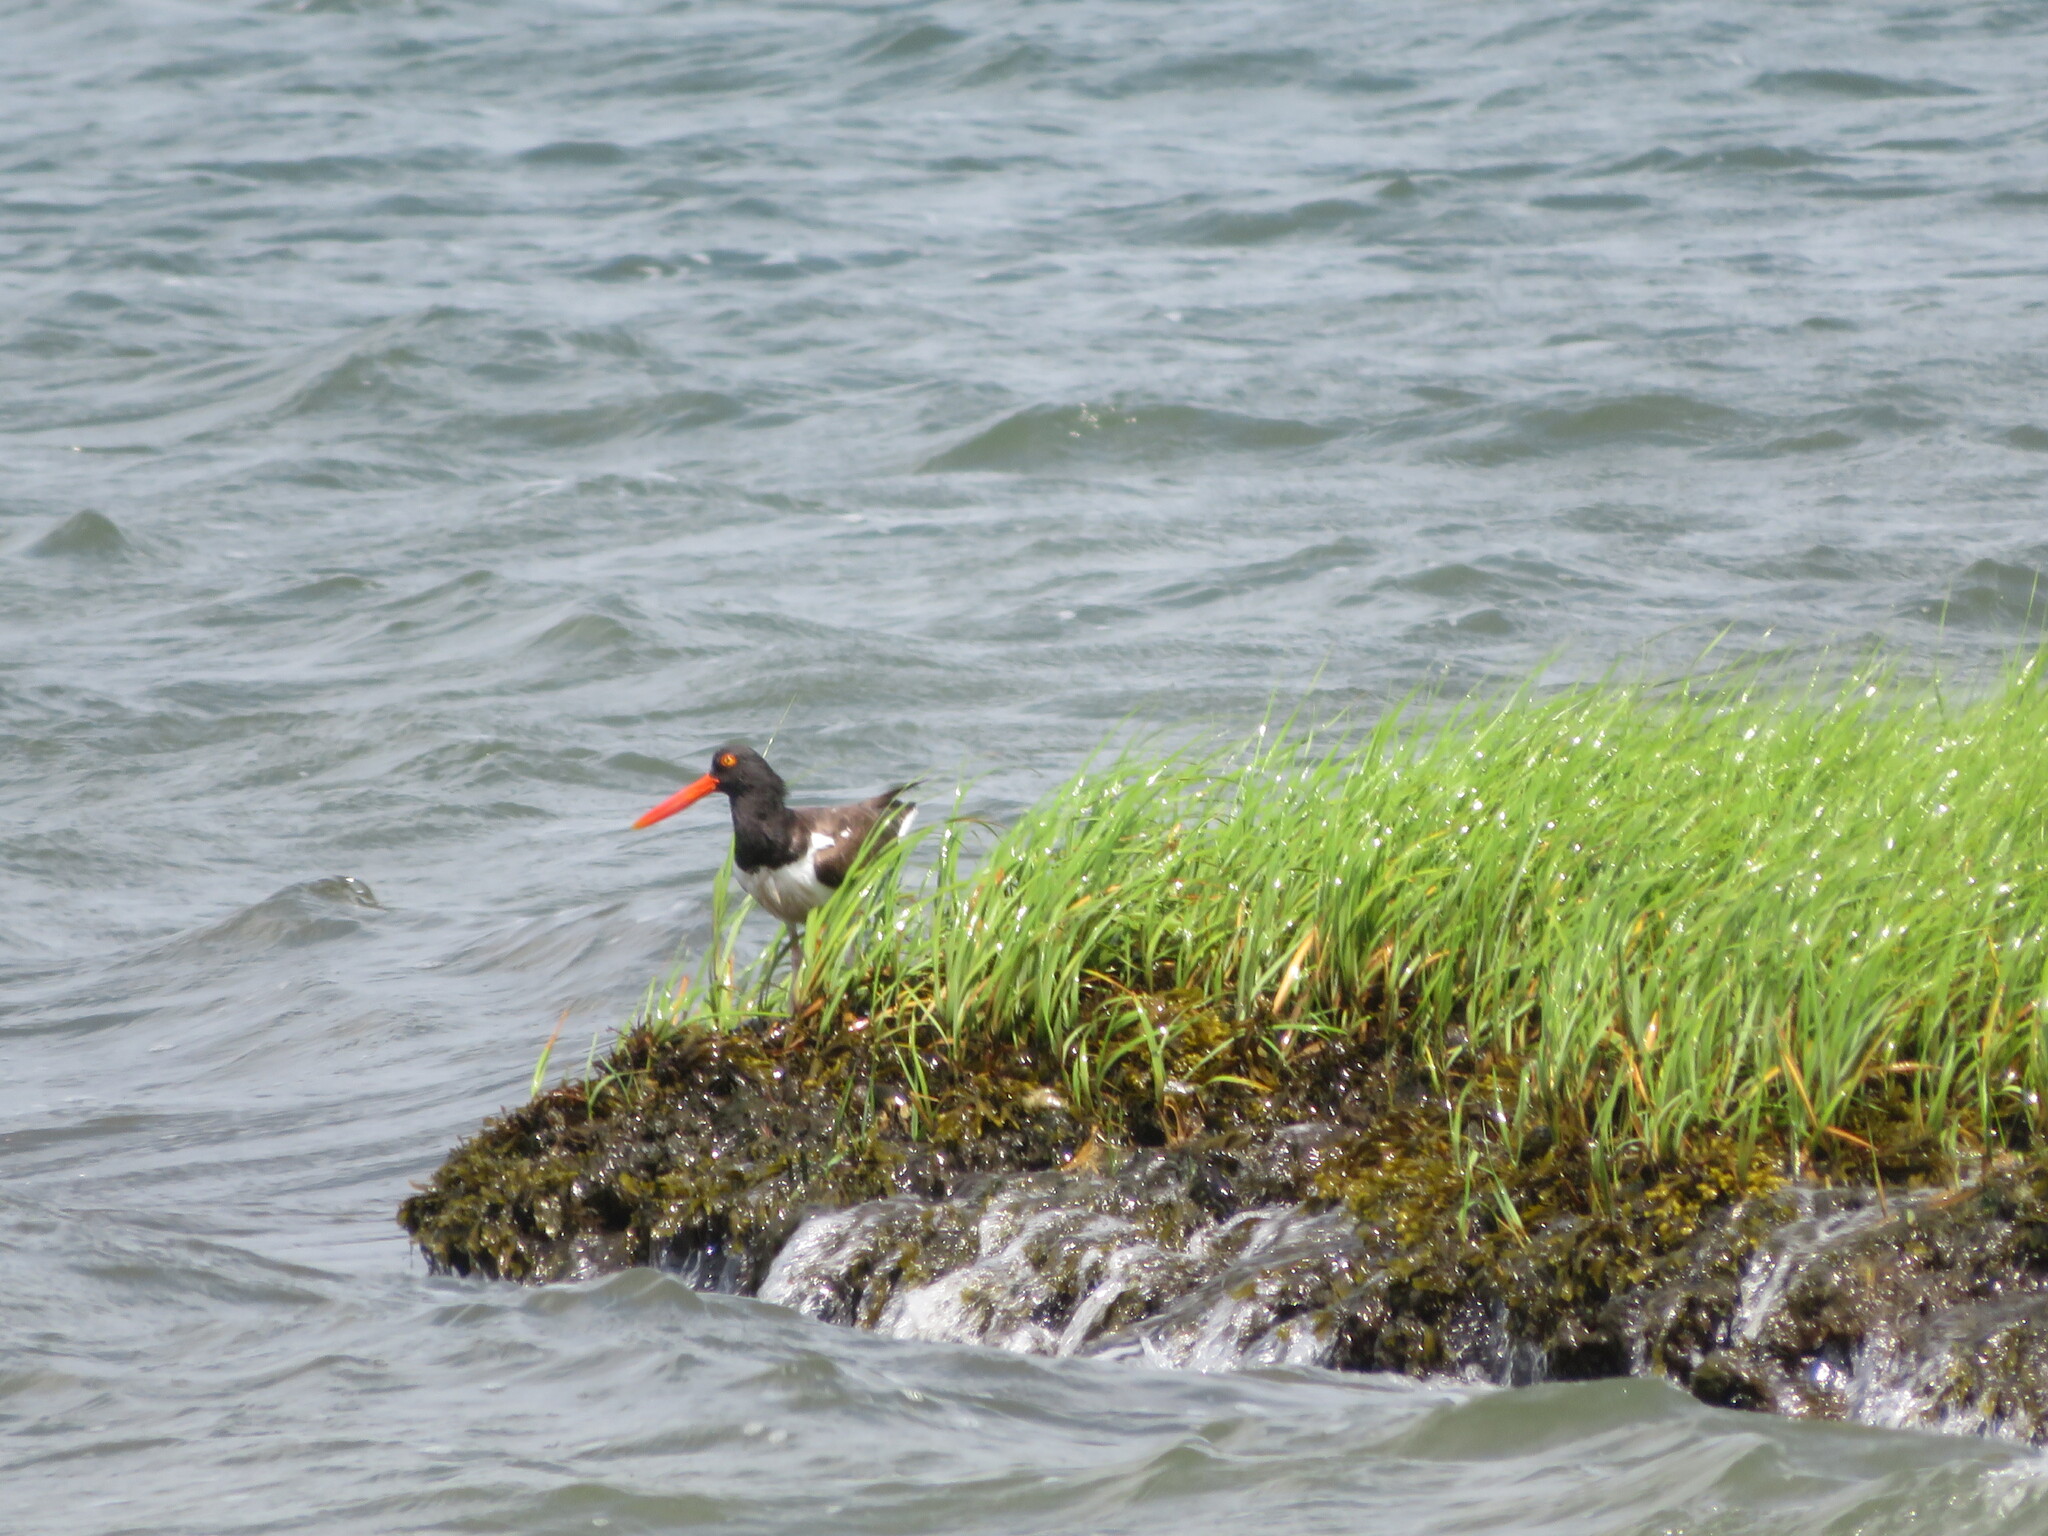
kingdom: Animalia
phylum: Chordata
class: Aves
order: Charadriiformes
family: Haematopodidae
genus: Haematopus
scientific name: Haematopus palliatus
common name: American oystercatcher
